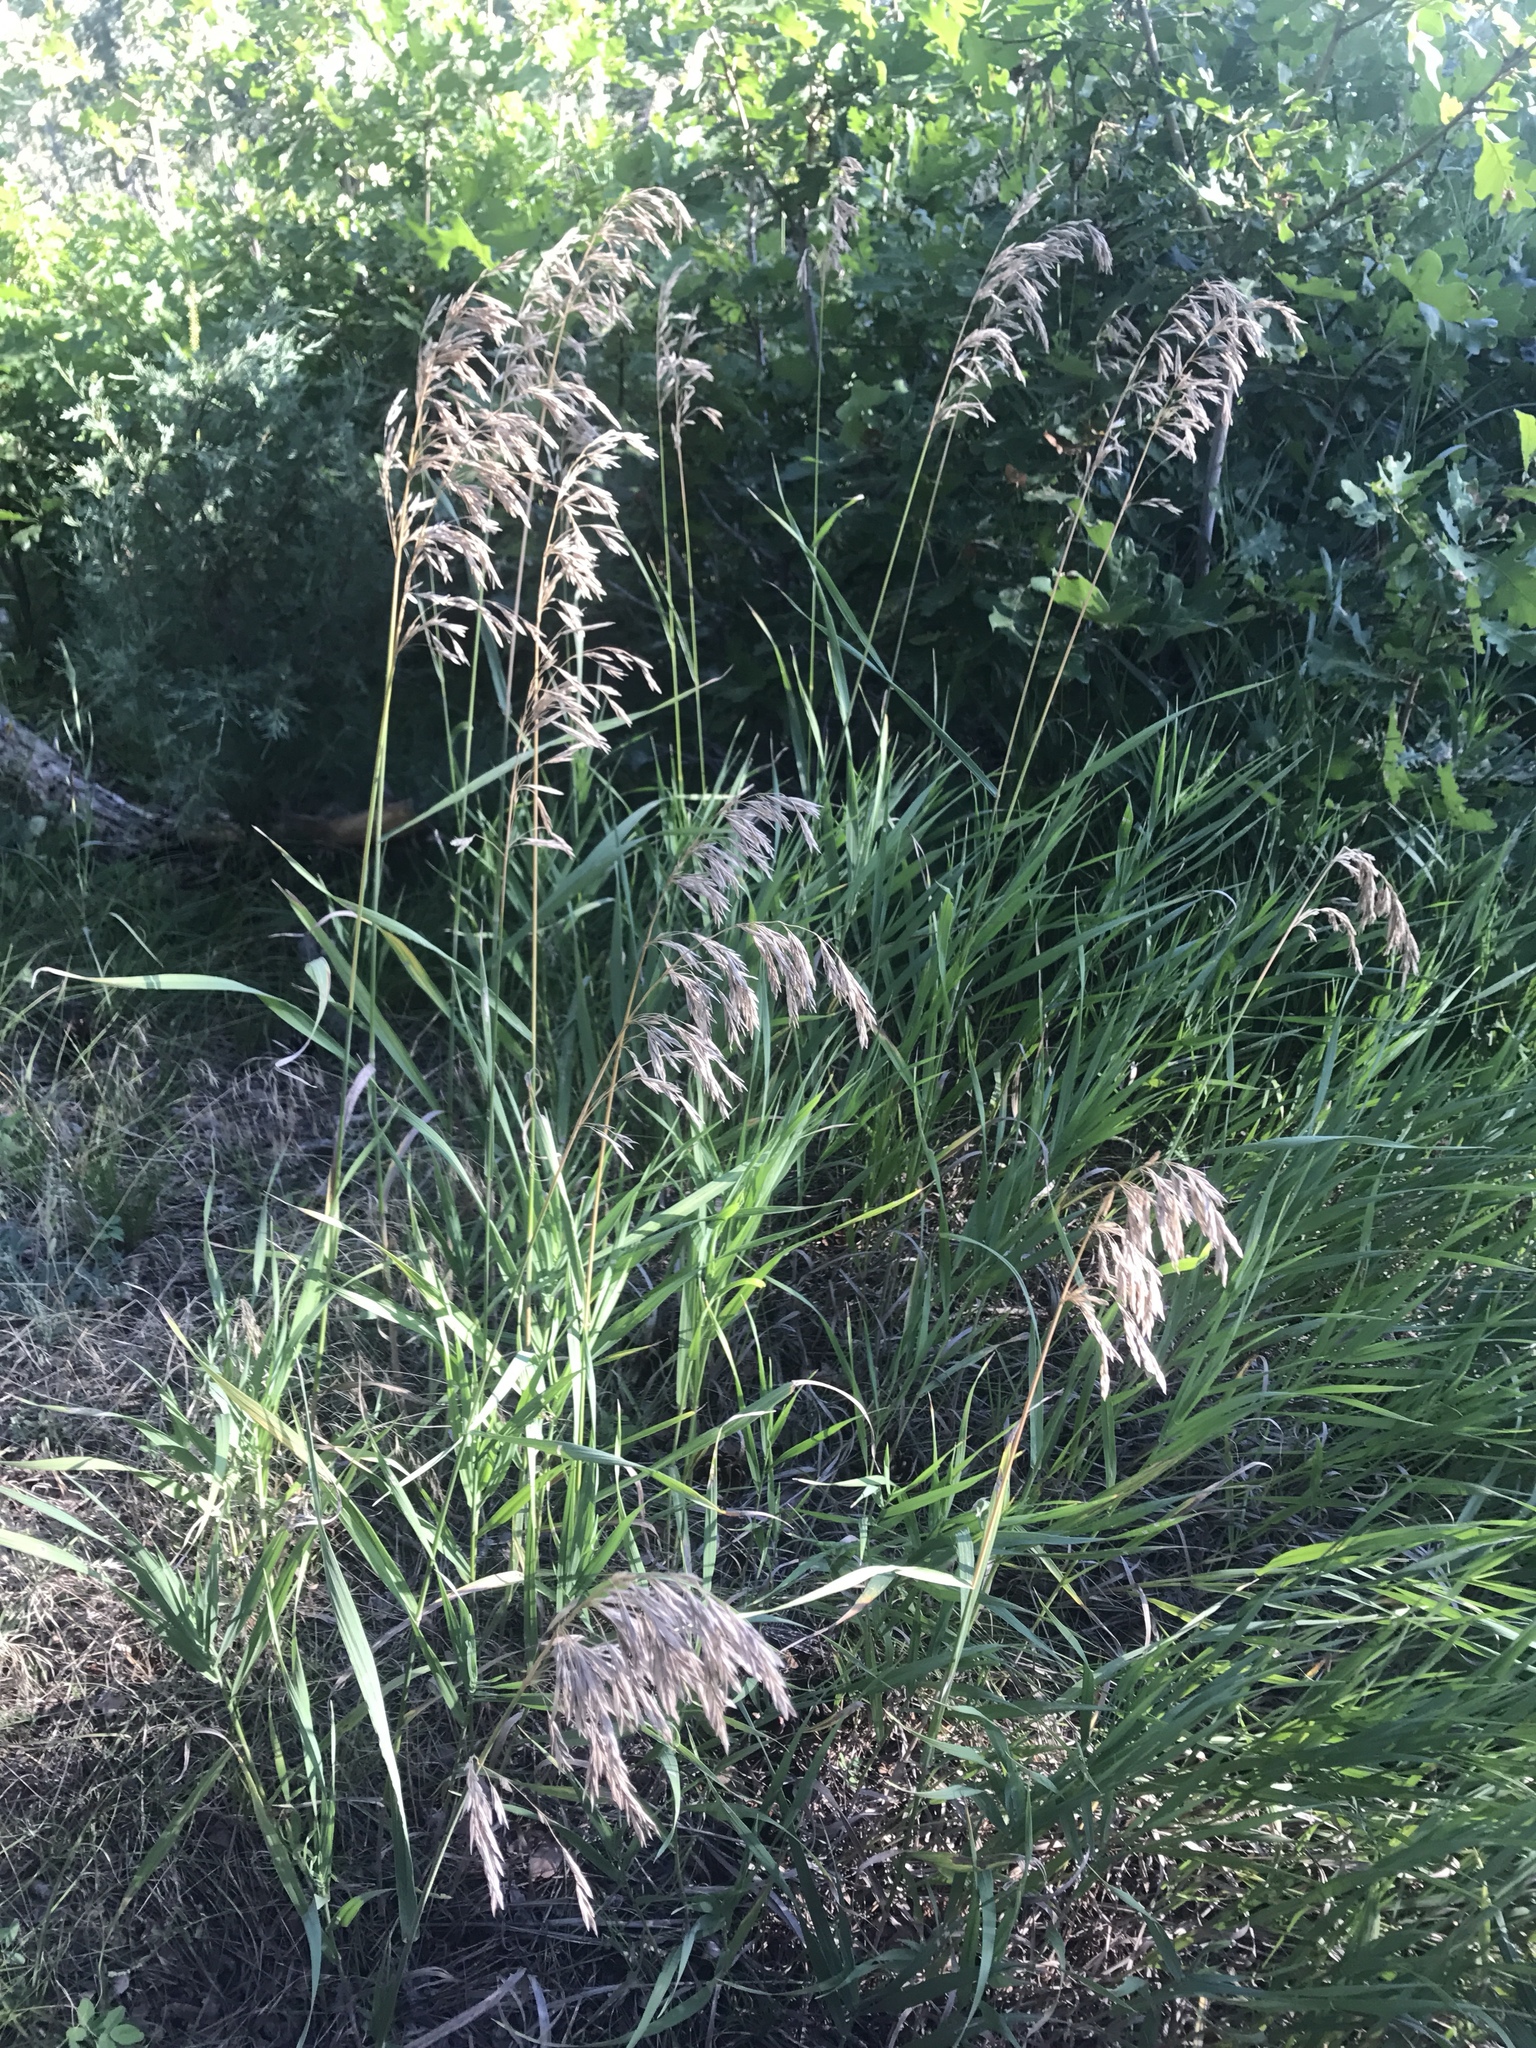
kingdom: Plantae
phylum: Tracheophyta
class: Liliopsida
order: Poales
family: Poaceae
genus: Bromus
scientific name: Bromus inermis
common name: Smooth brome
